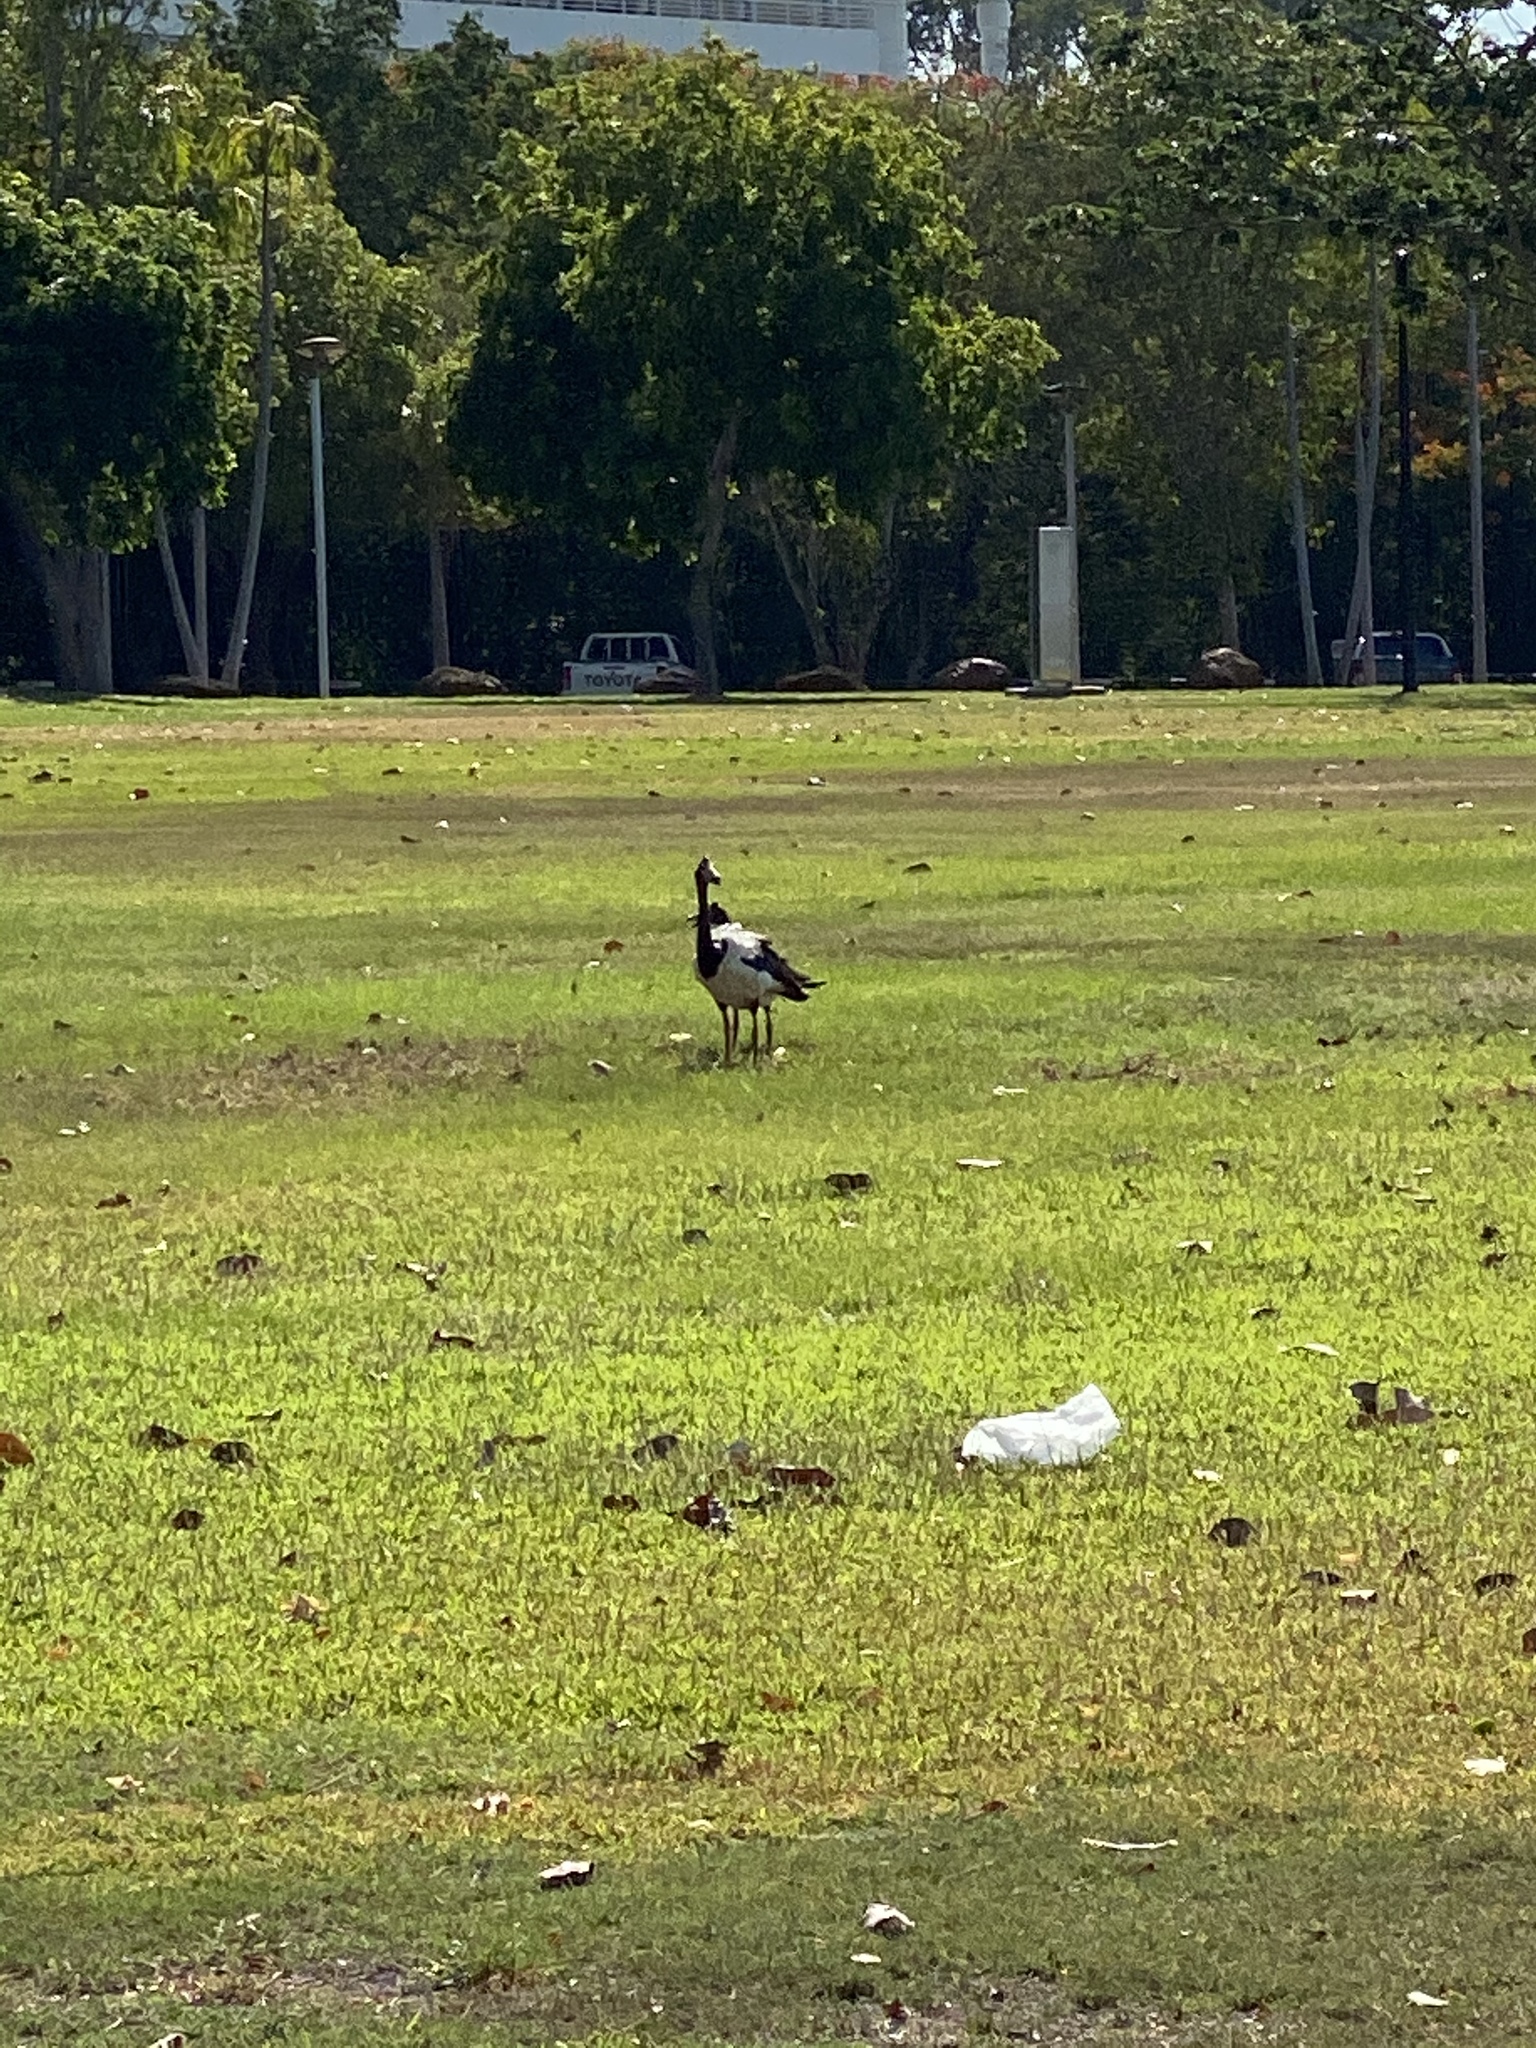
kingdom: Animalia
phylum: Chordata
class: Aves
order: Anseriformes
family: Anseranatidae
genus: Anseranas
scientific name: Anseranas semipalmata
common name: Magpie goose
